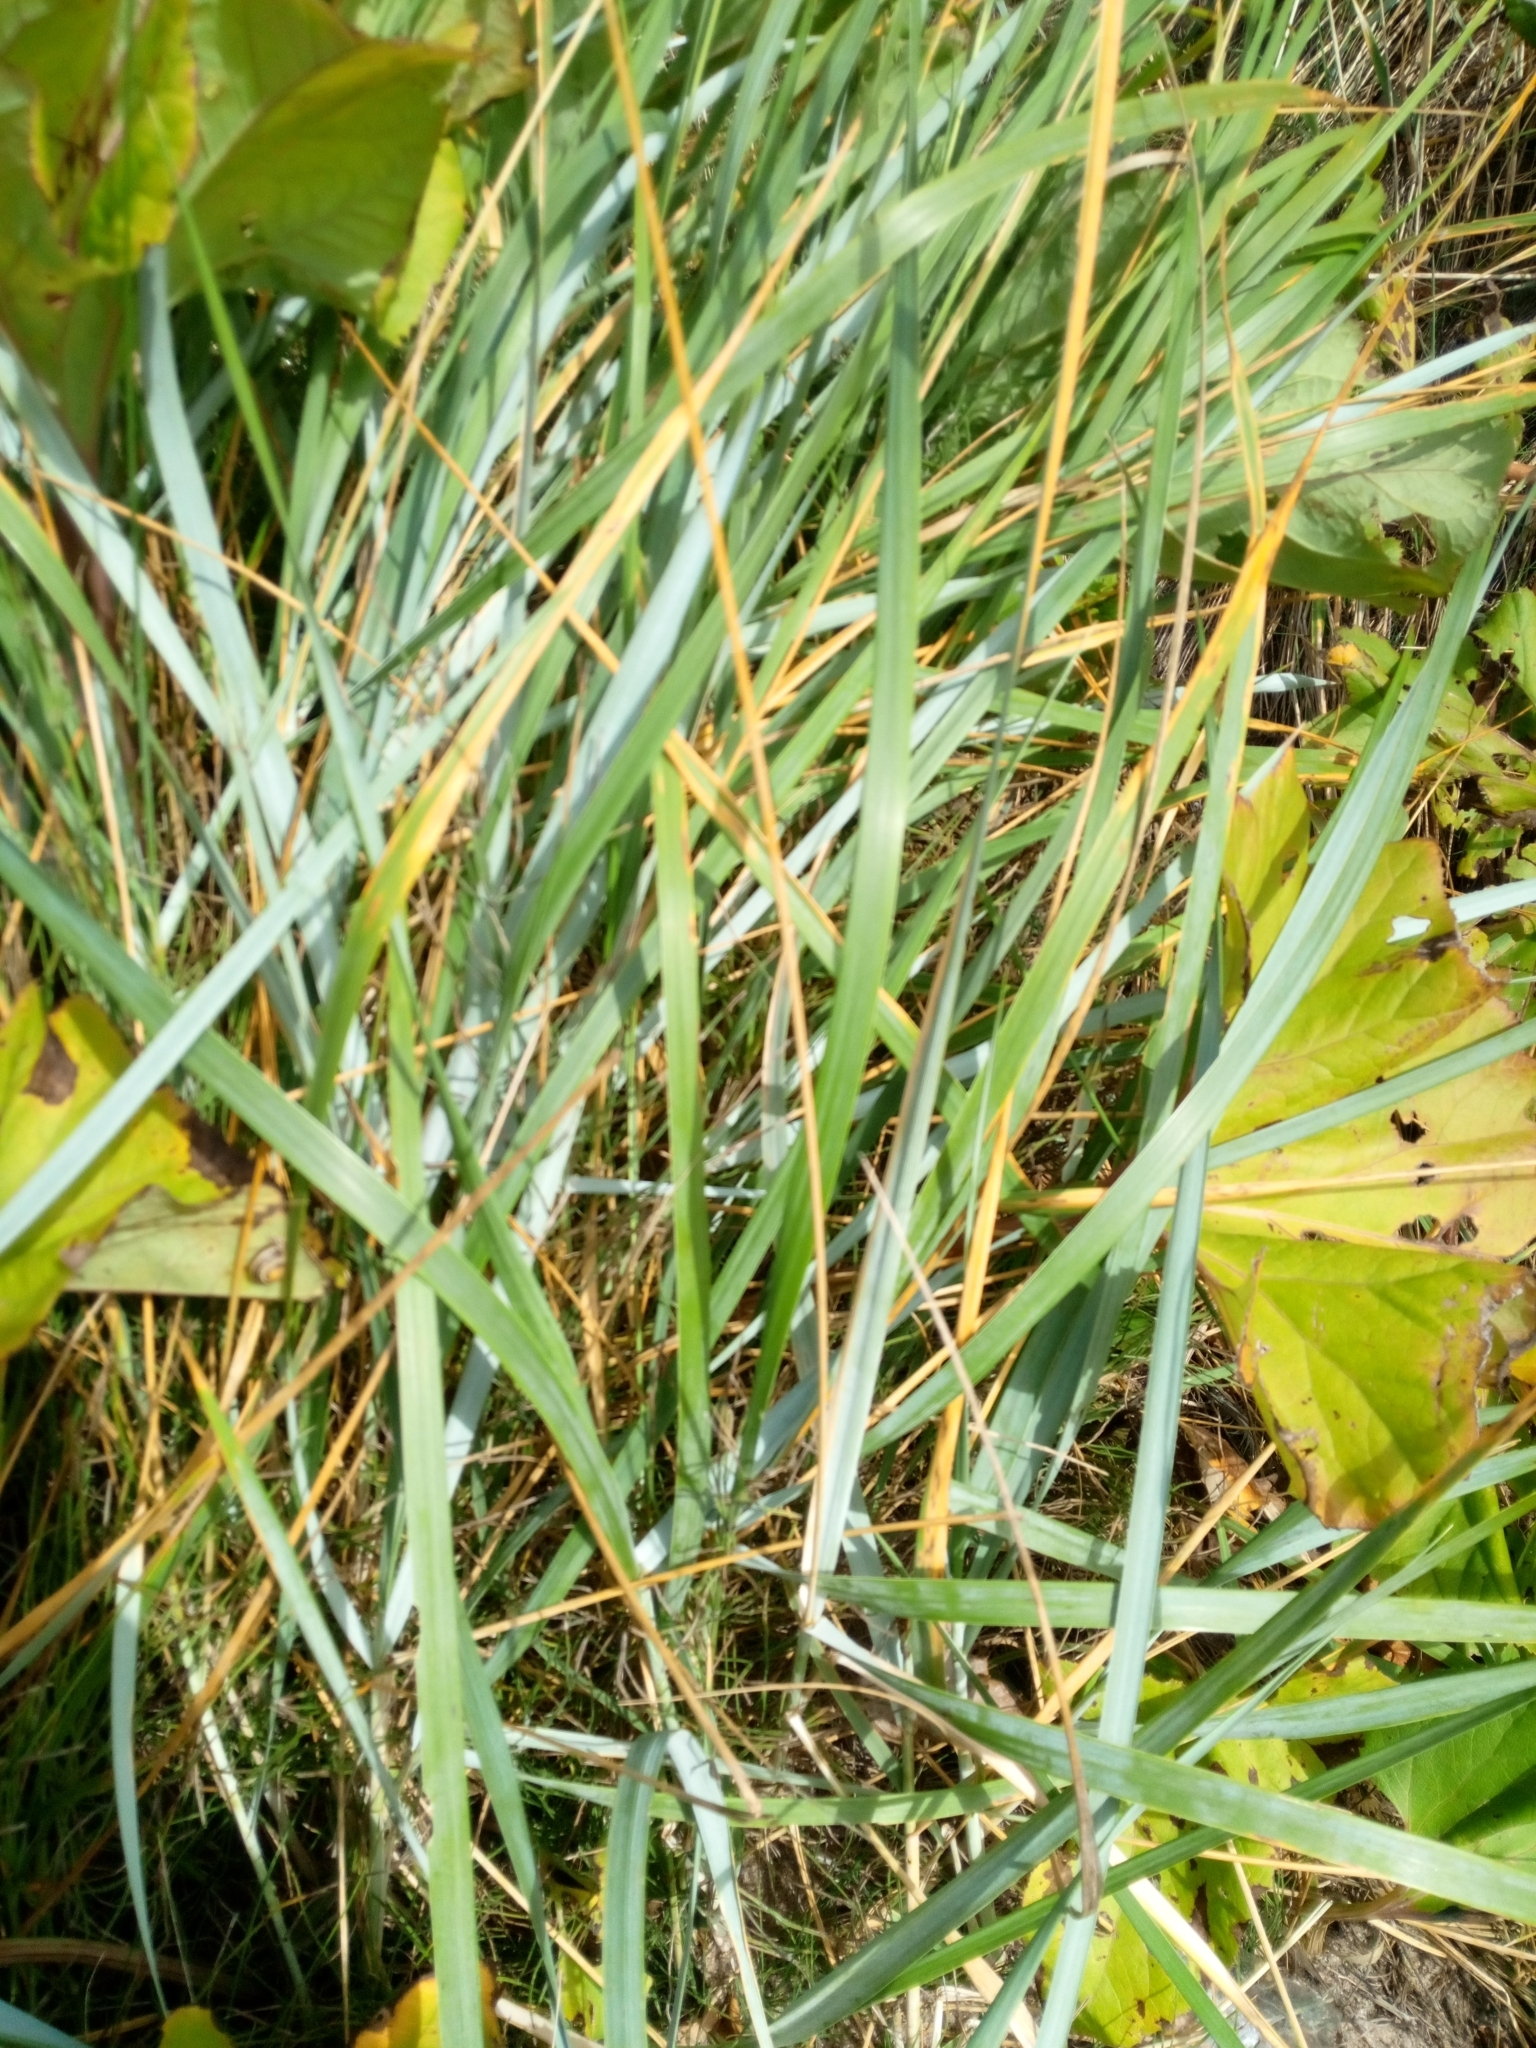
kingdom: Plantae
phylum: Tracheophyta
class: Liliopsida
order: Poales
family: Poaceae
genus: Leymus
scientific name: Leymus arenarius
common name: Lyme-grass
